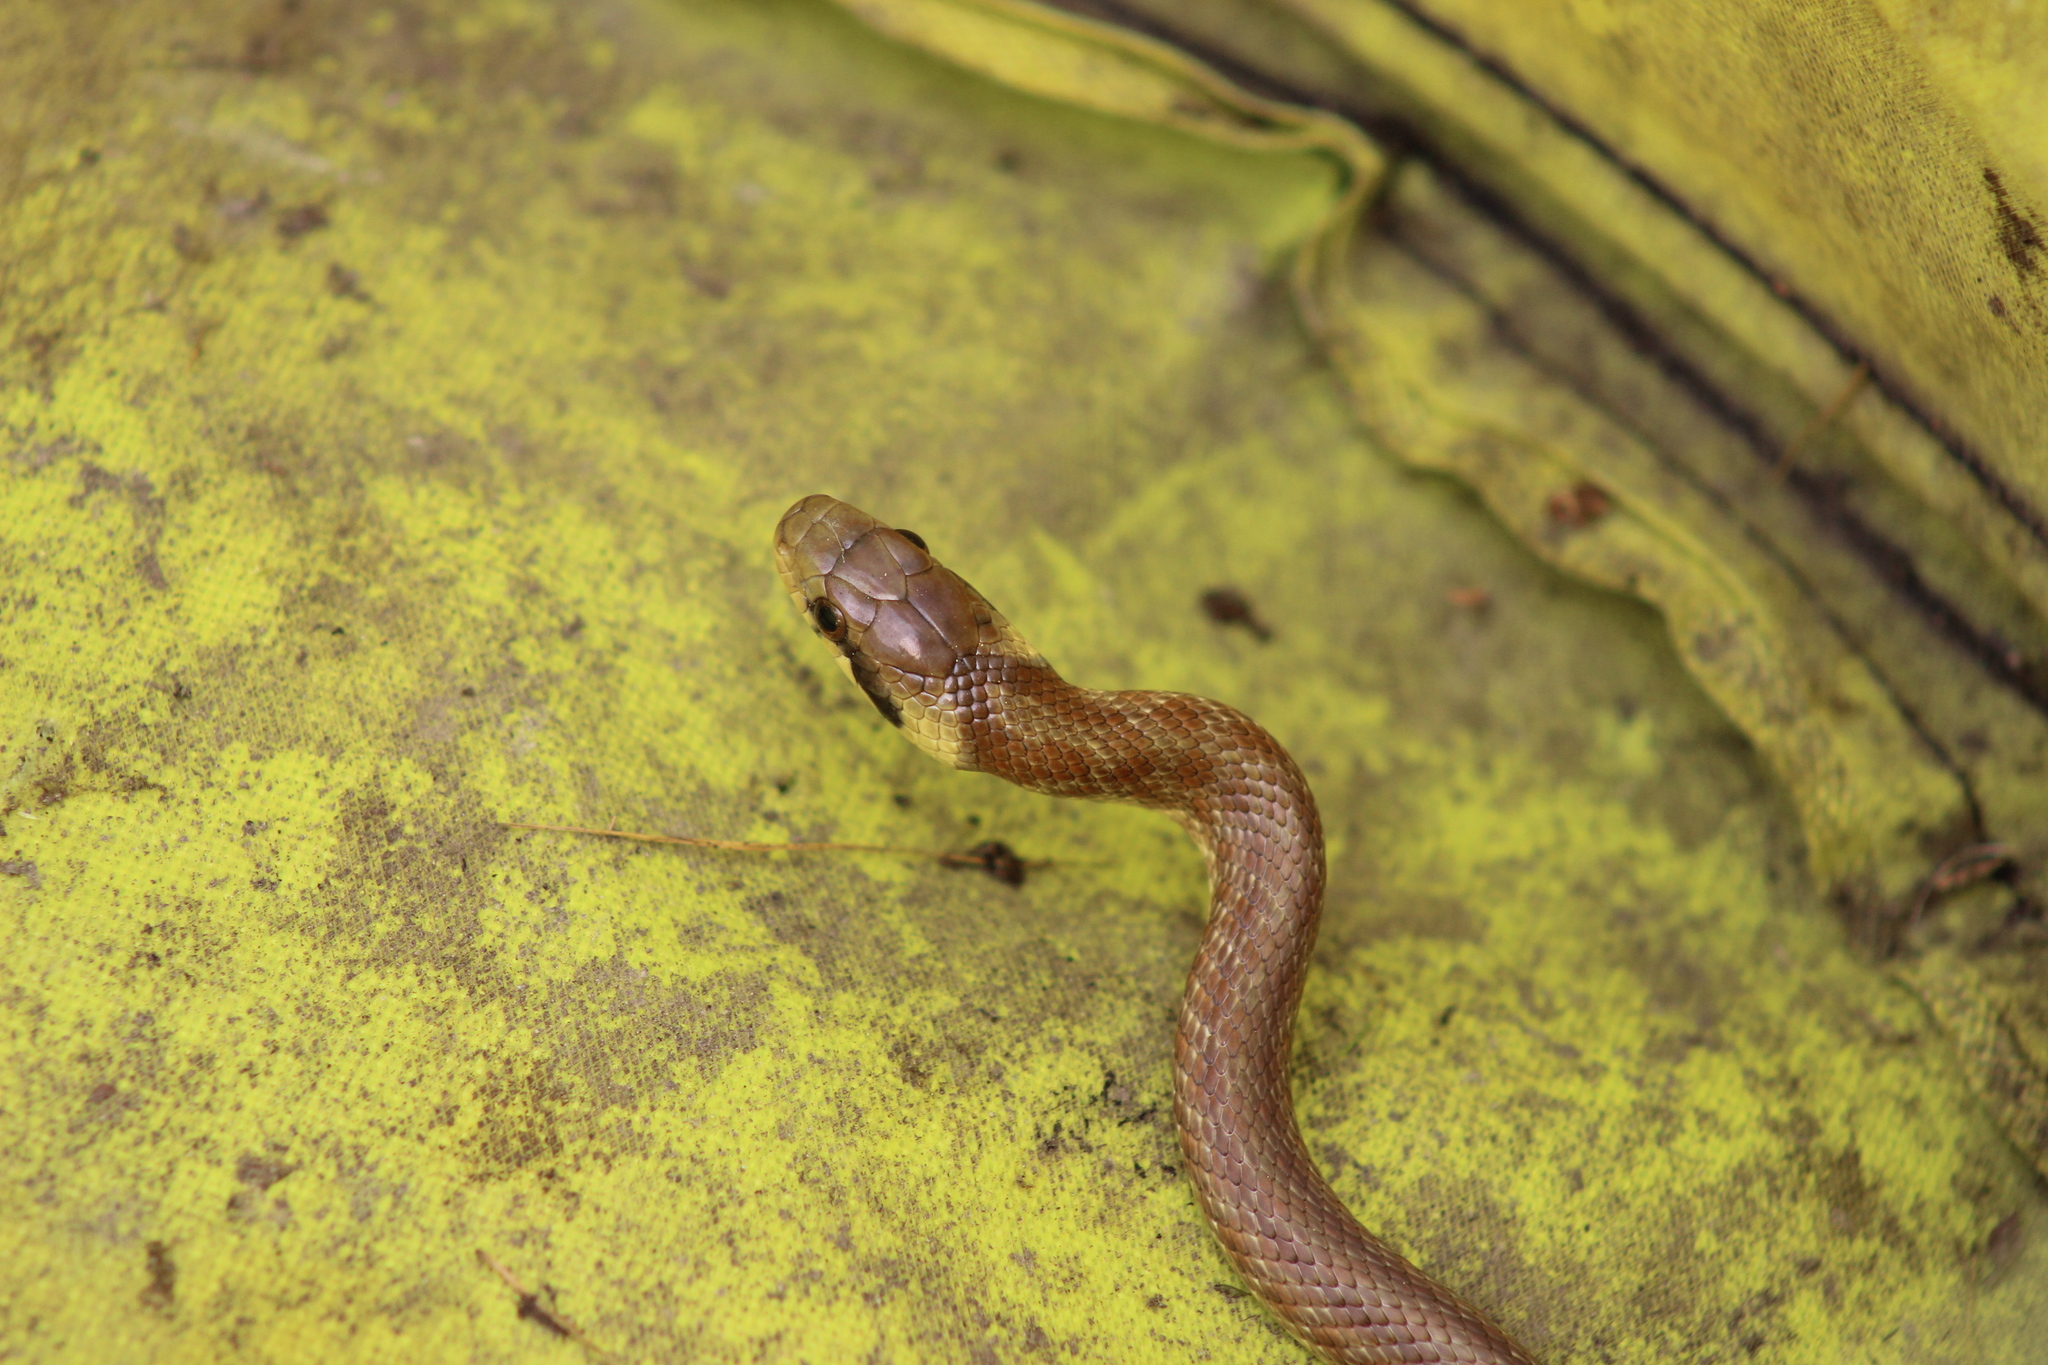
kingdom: Animalia
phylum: Chordata
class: Squamata
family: Colubridae
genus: Zamenis
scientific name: Zamenis longissimus
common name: Aesculapean snake
